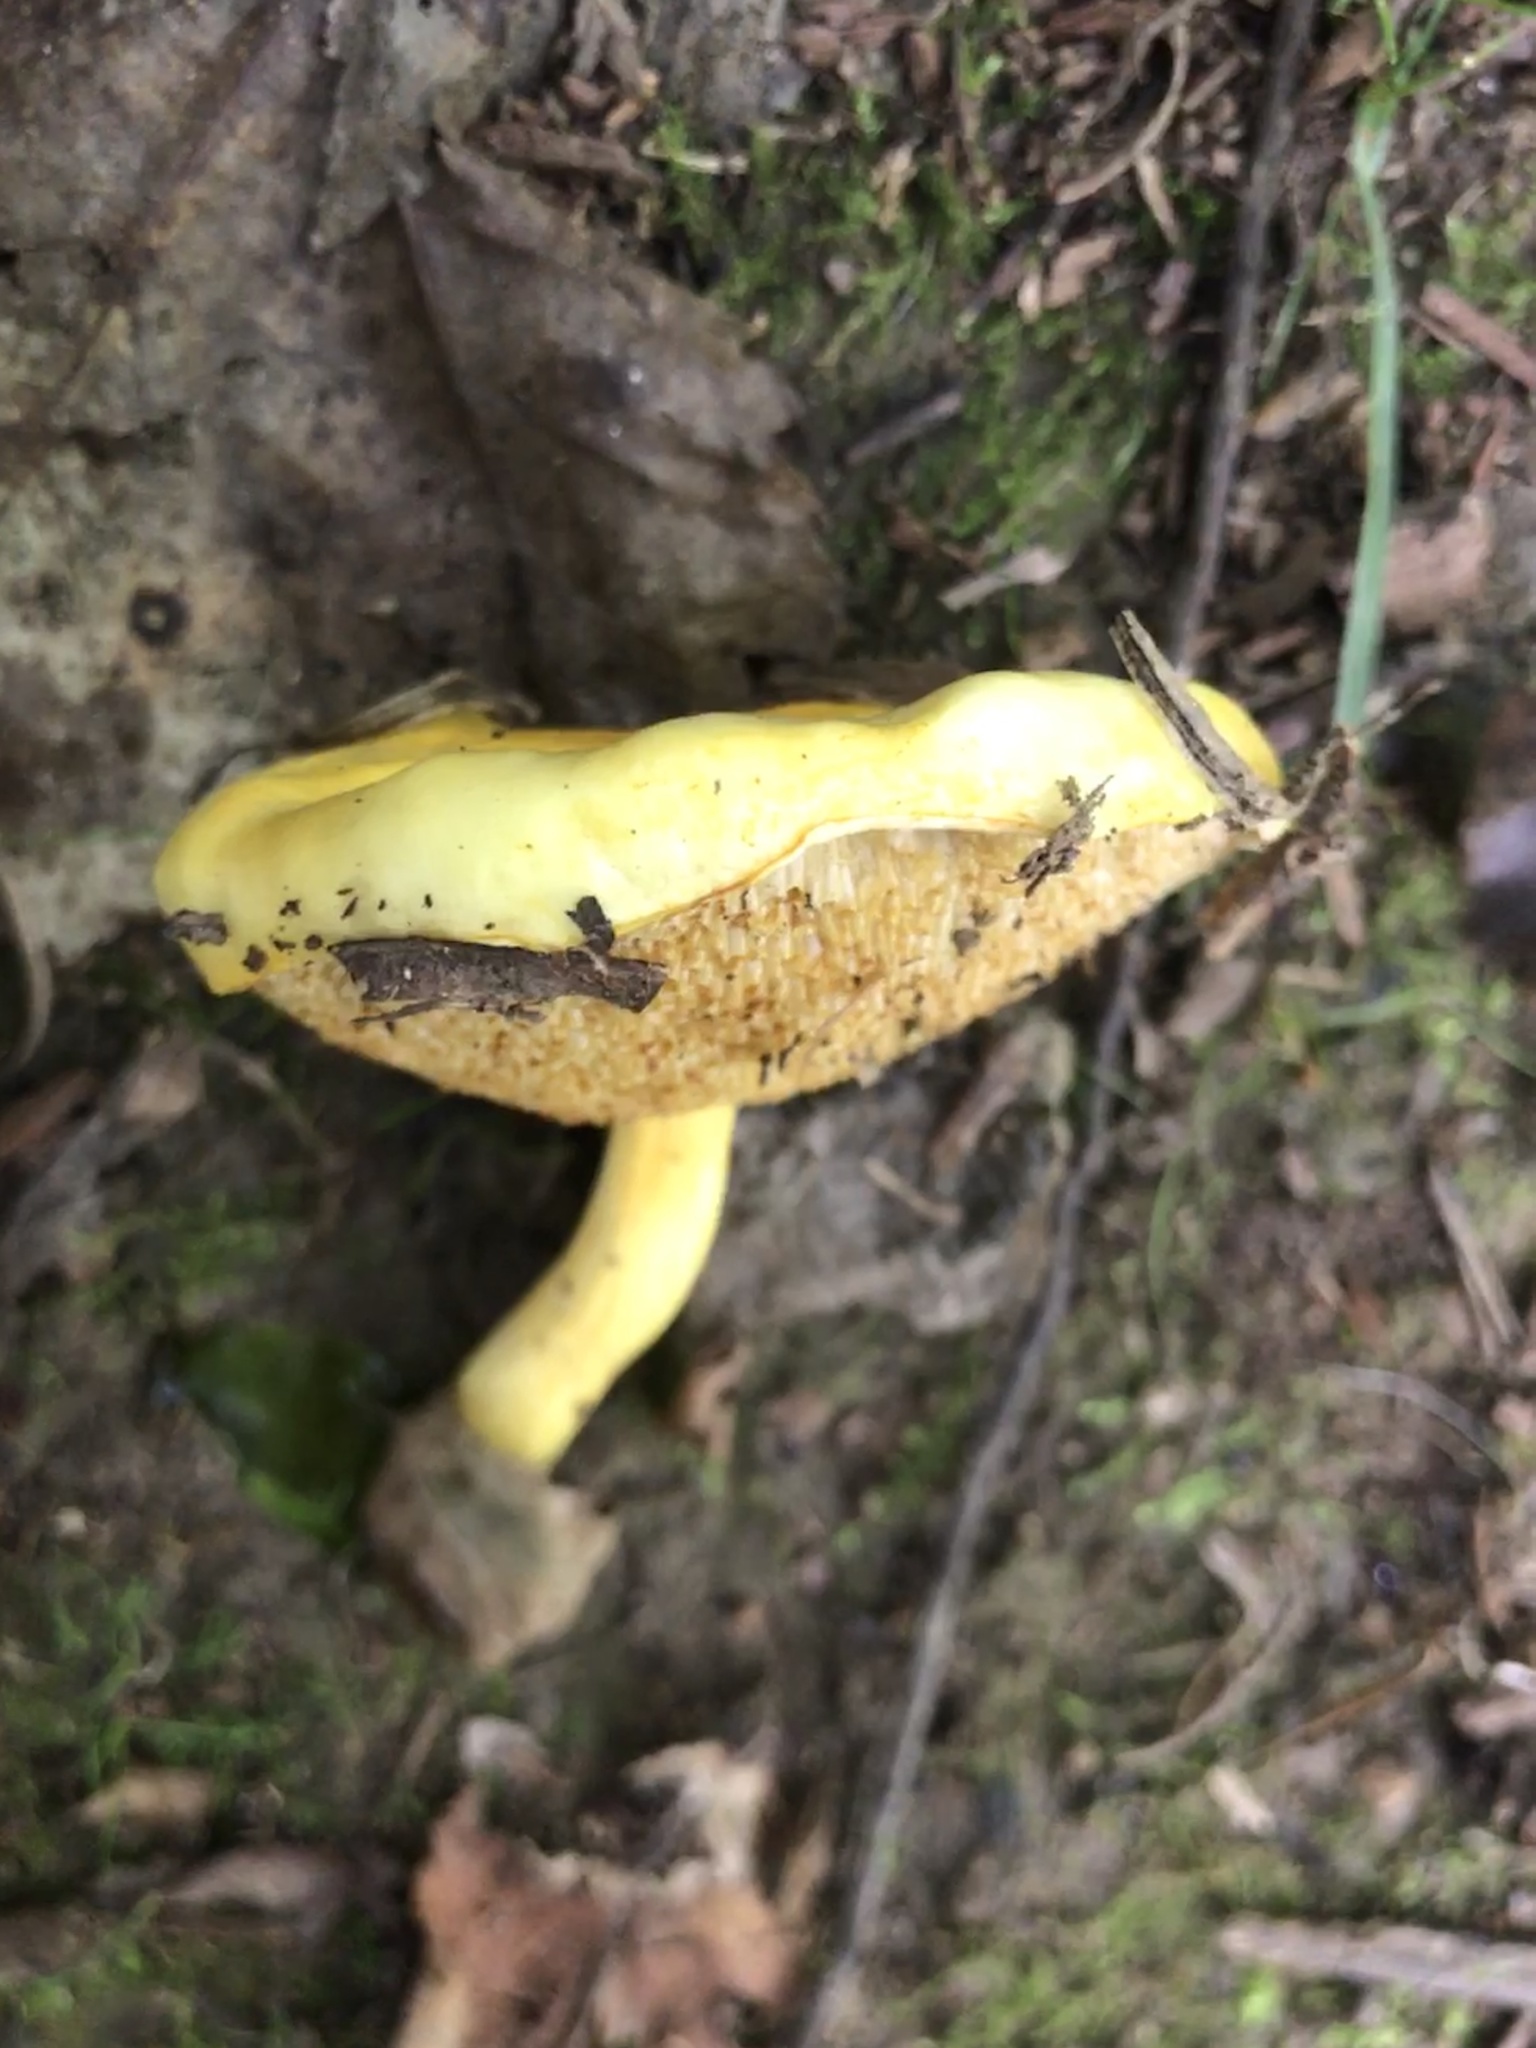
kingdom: Fungi
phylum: Basidiomycota
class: Agaricomycetes
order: Boletales
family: Boletaceae
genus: Pulveroboletus
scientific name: Pulveroboletus curtisii
